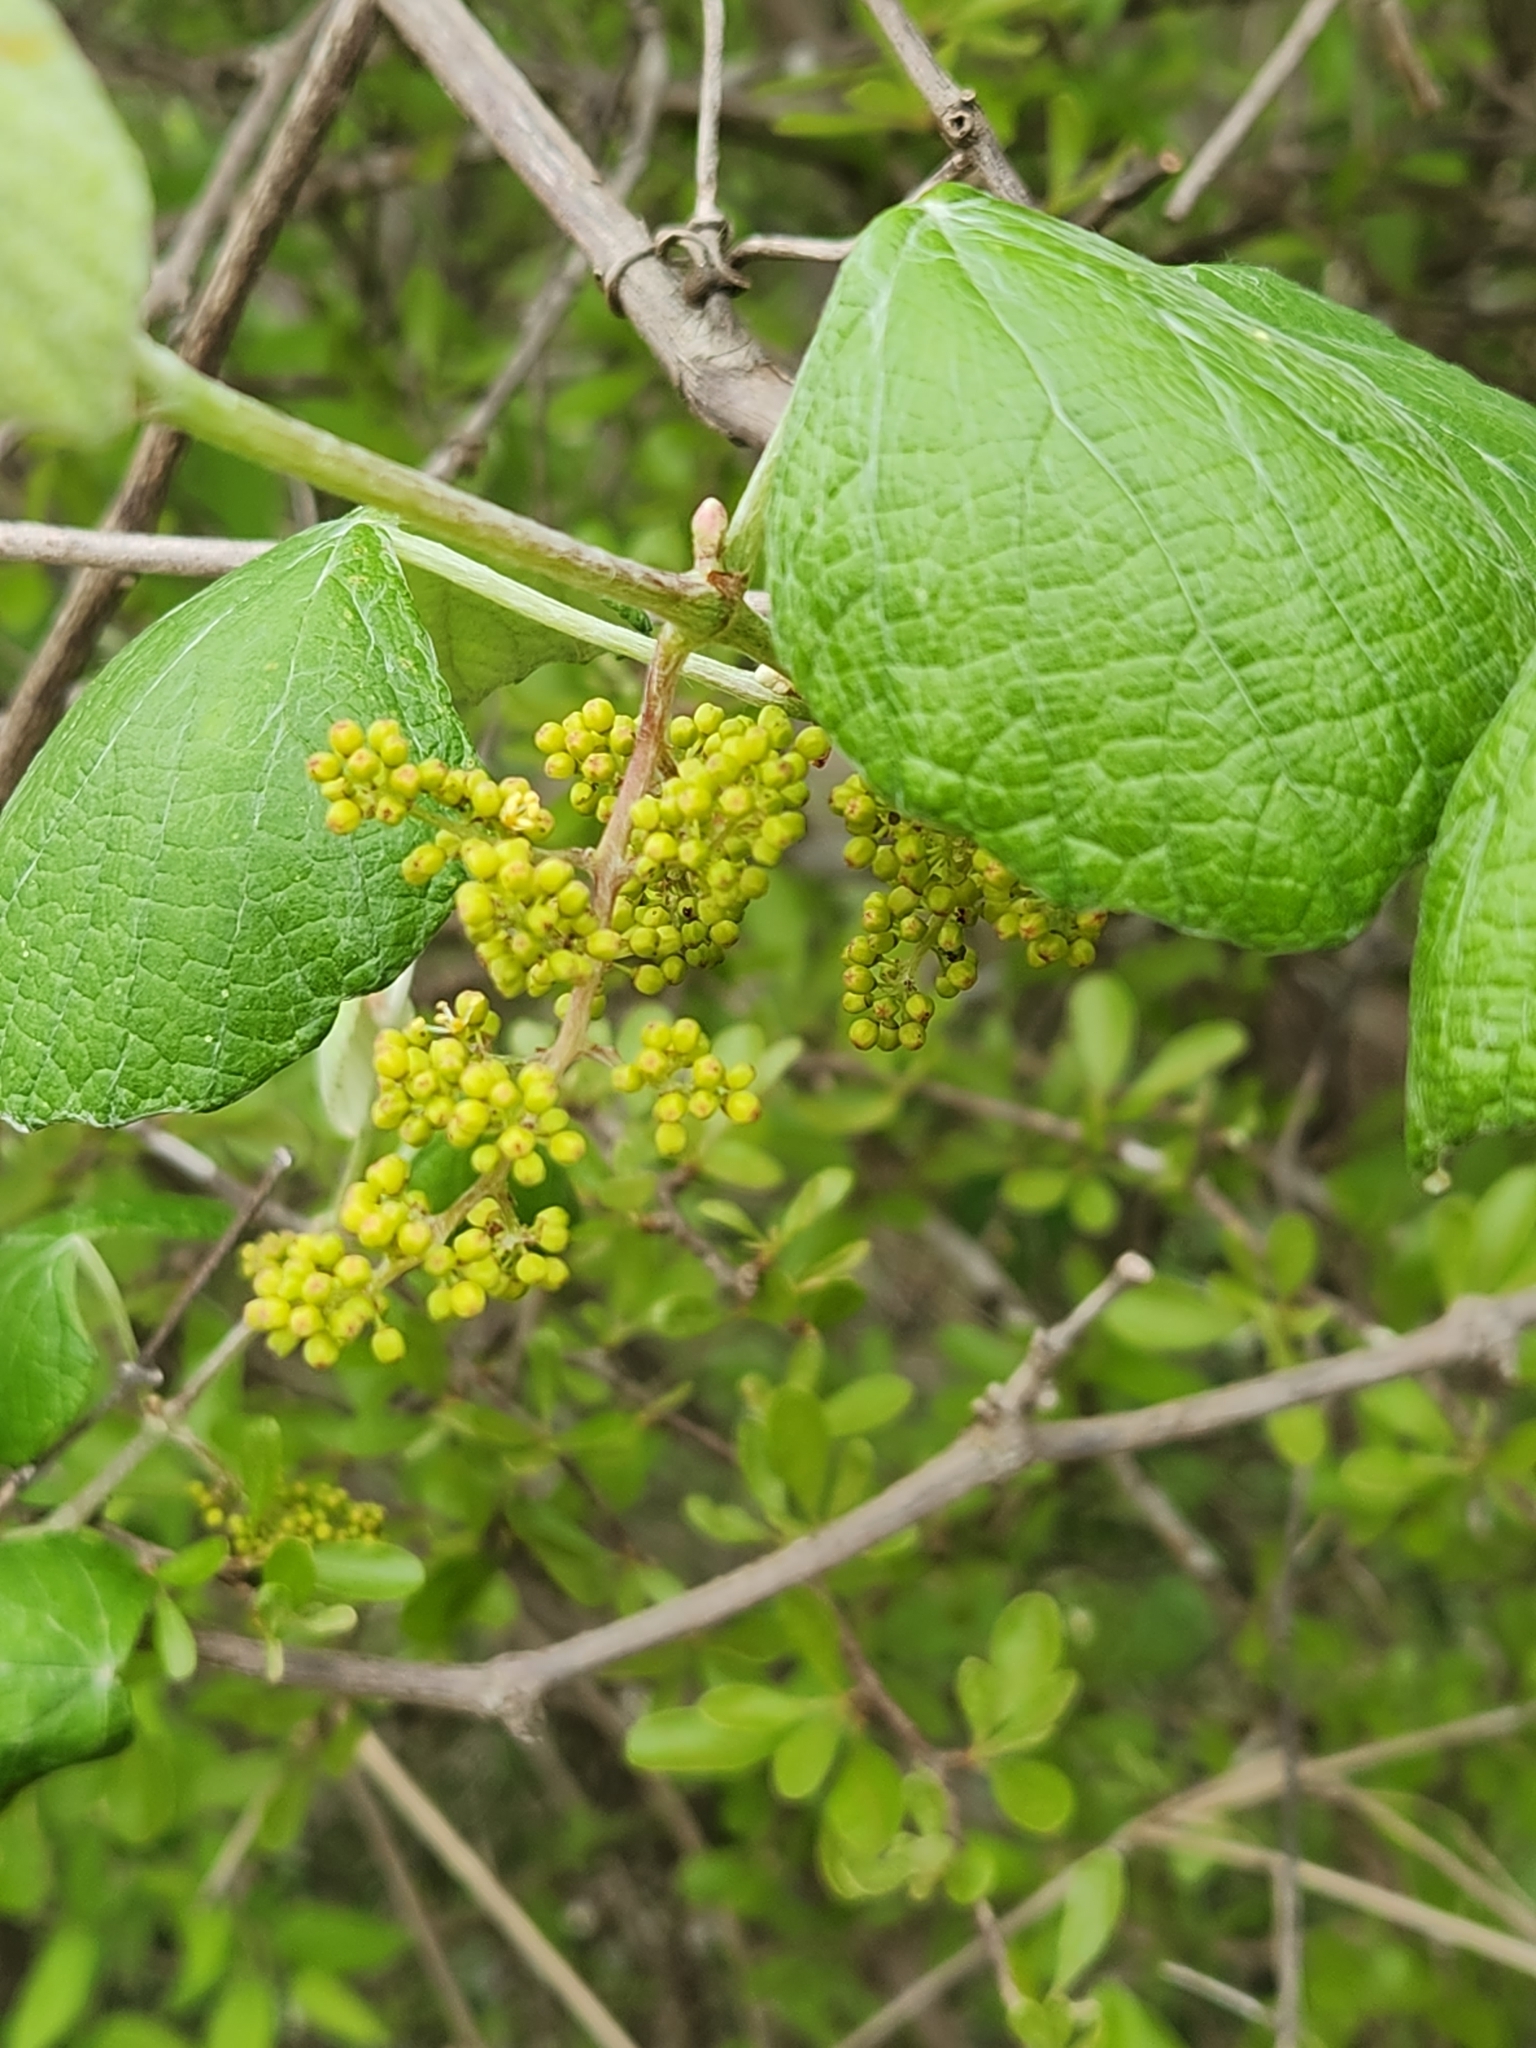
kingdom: Plantae
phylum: Tracheophyta
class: Magnoliopsida
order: Vitales
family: Vitaceae
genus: Vitis
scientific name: Vitis mustangensis
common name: Mustang grape
